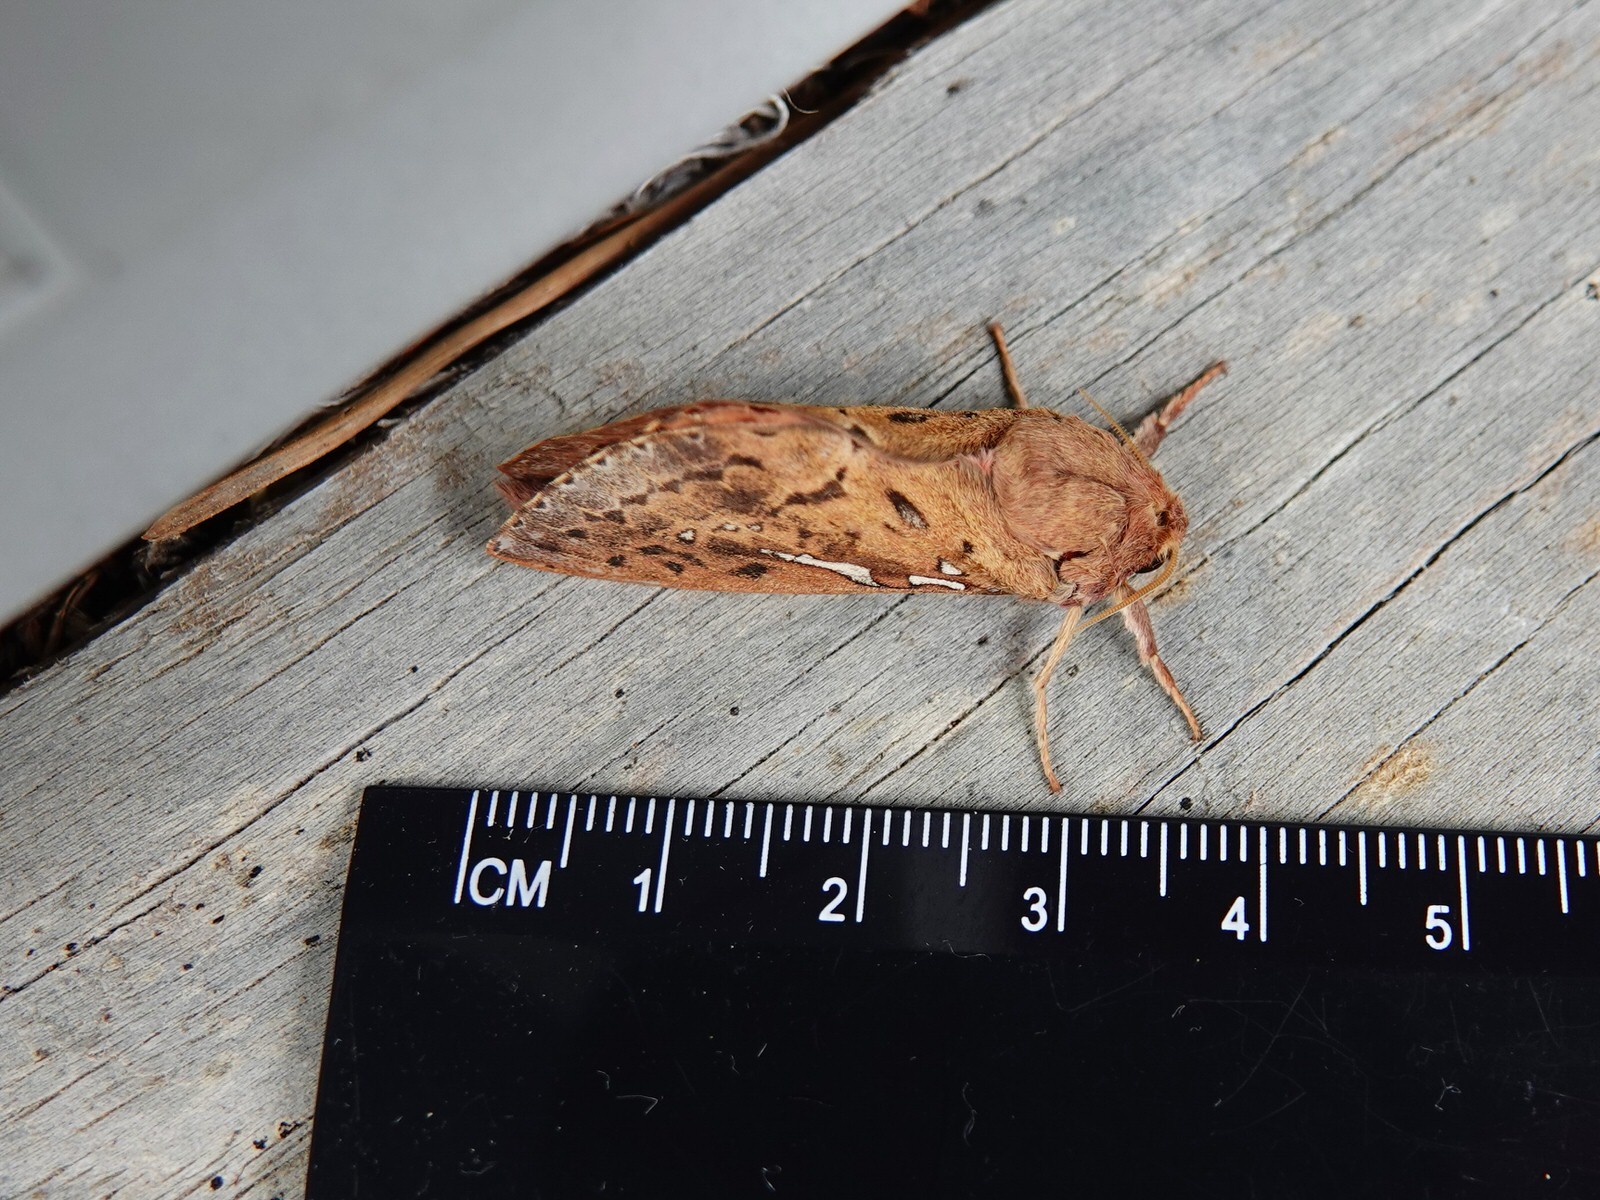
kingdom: Animalia
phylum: Arthropoda
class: Insecta
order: Lepidoptera
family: Hepialidae
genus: Wiseana
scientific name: Wiseana signata
